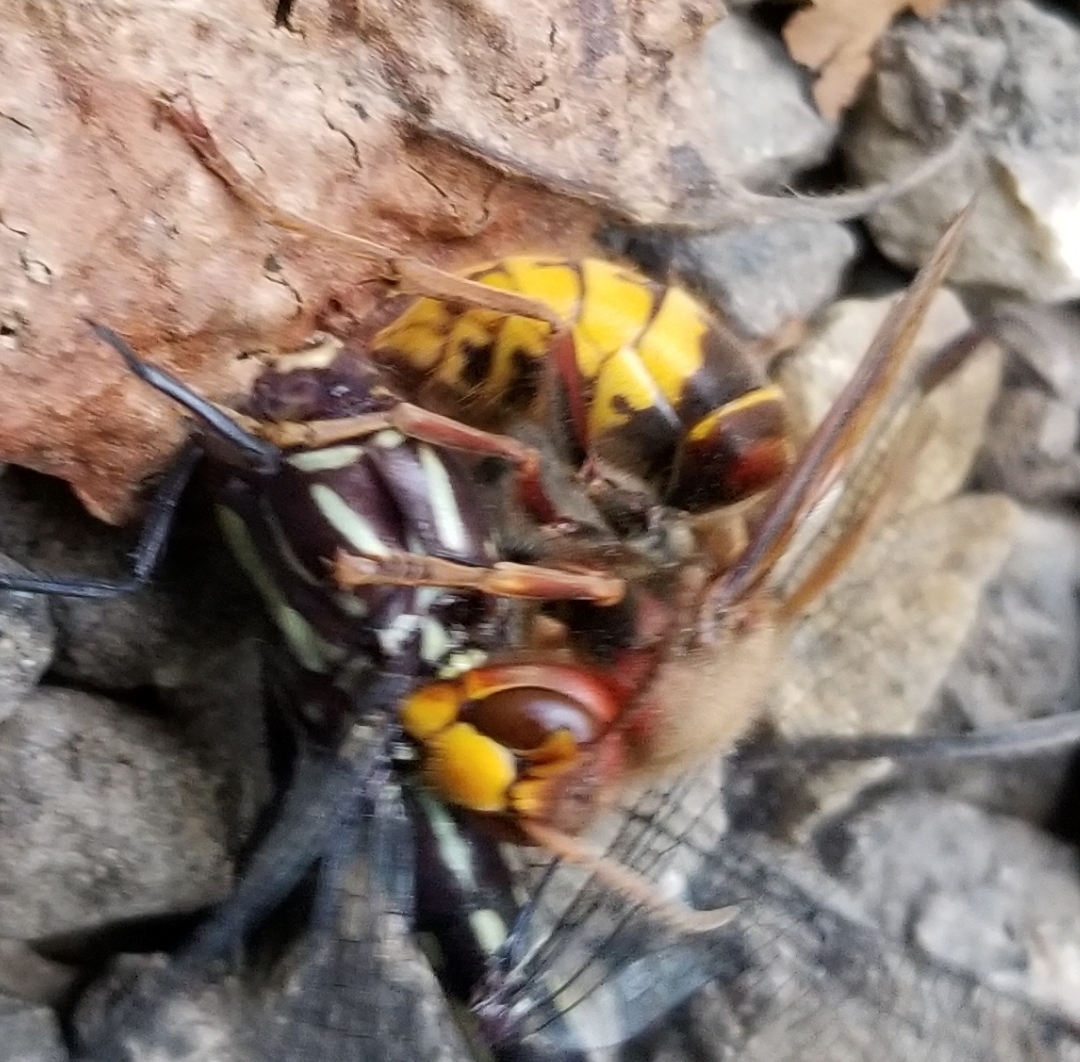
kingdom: Animalia
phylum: Arthropoda
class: Insecta
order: Hymenoptera
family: Vespidae
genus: Vespa
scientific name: Vespa crabro
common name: Hornet
